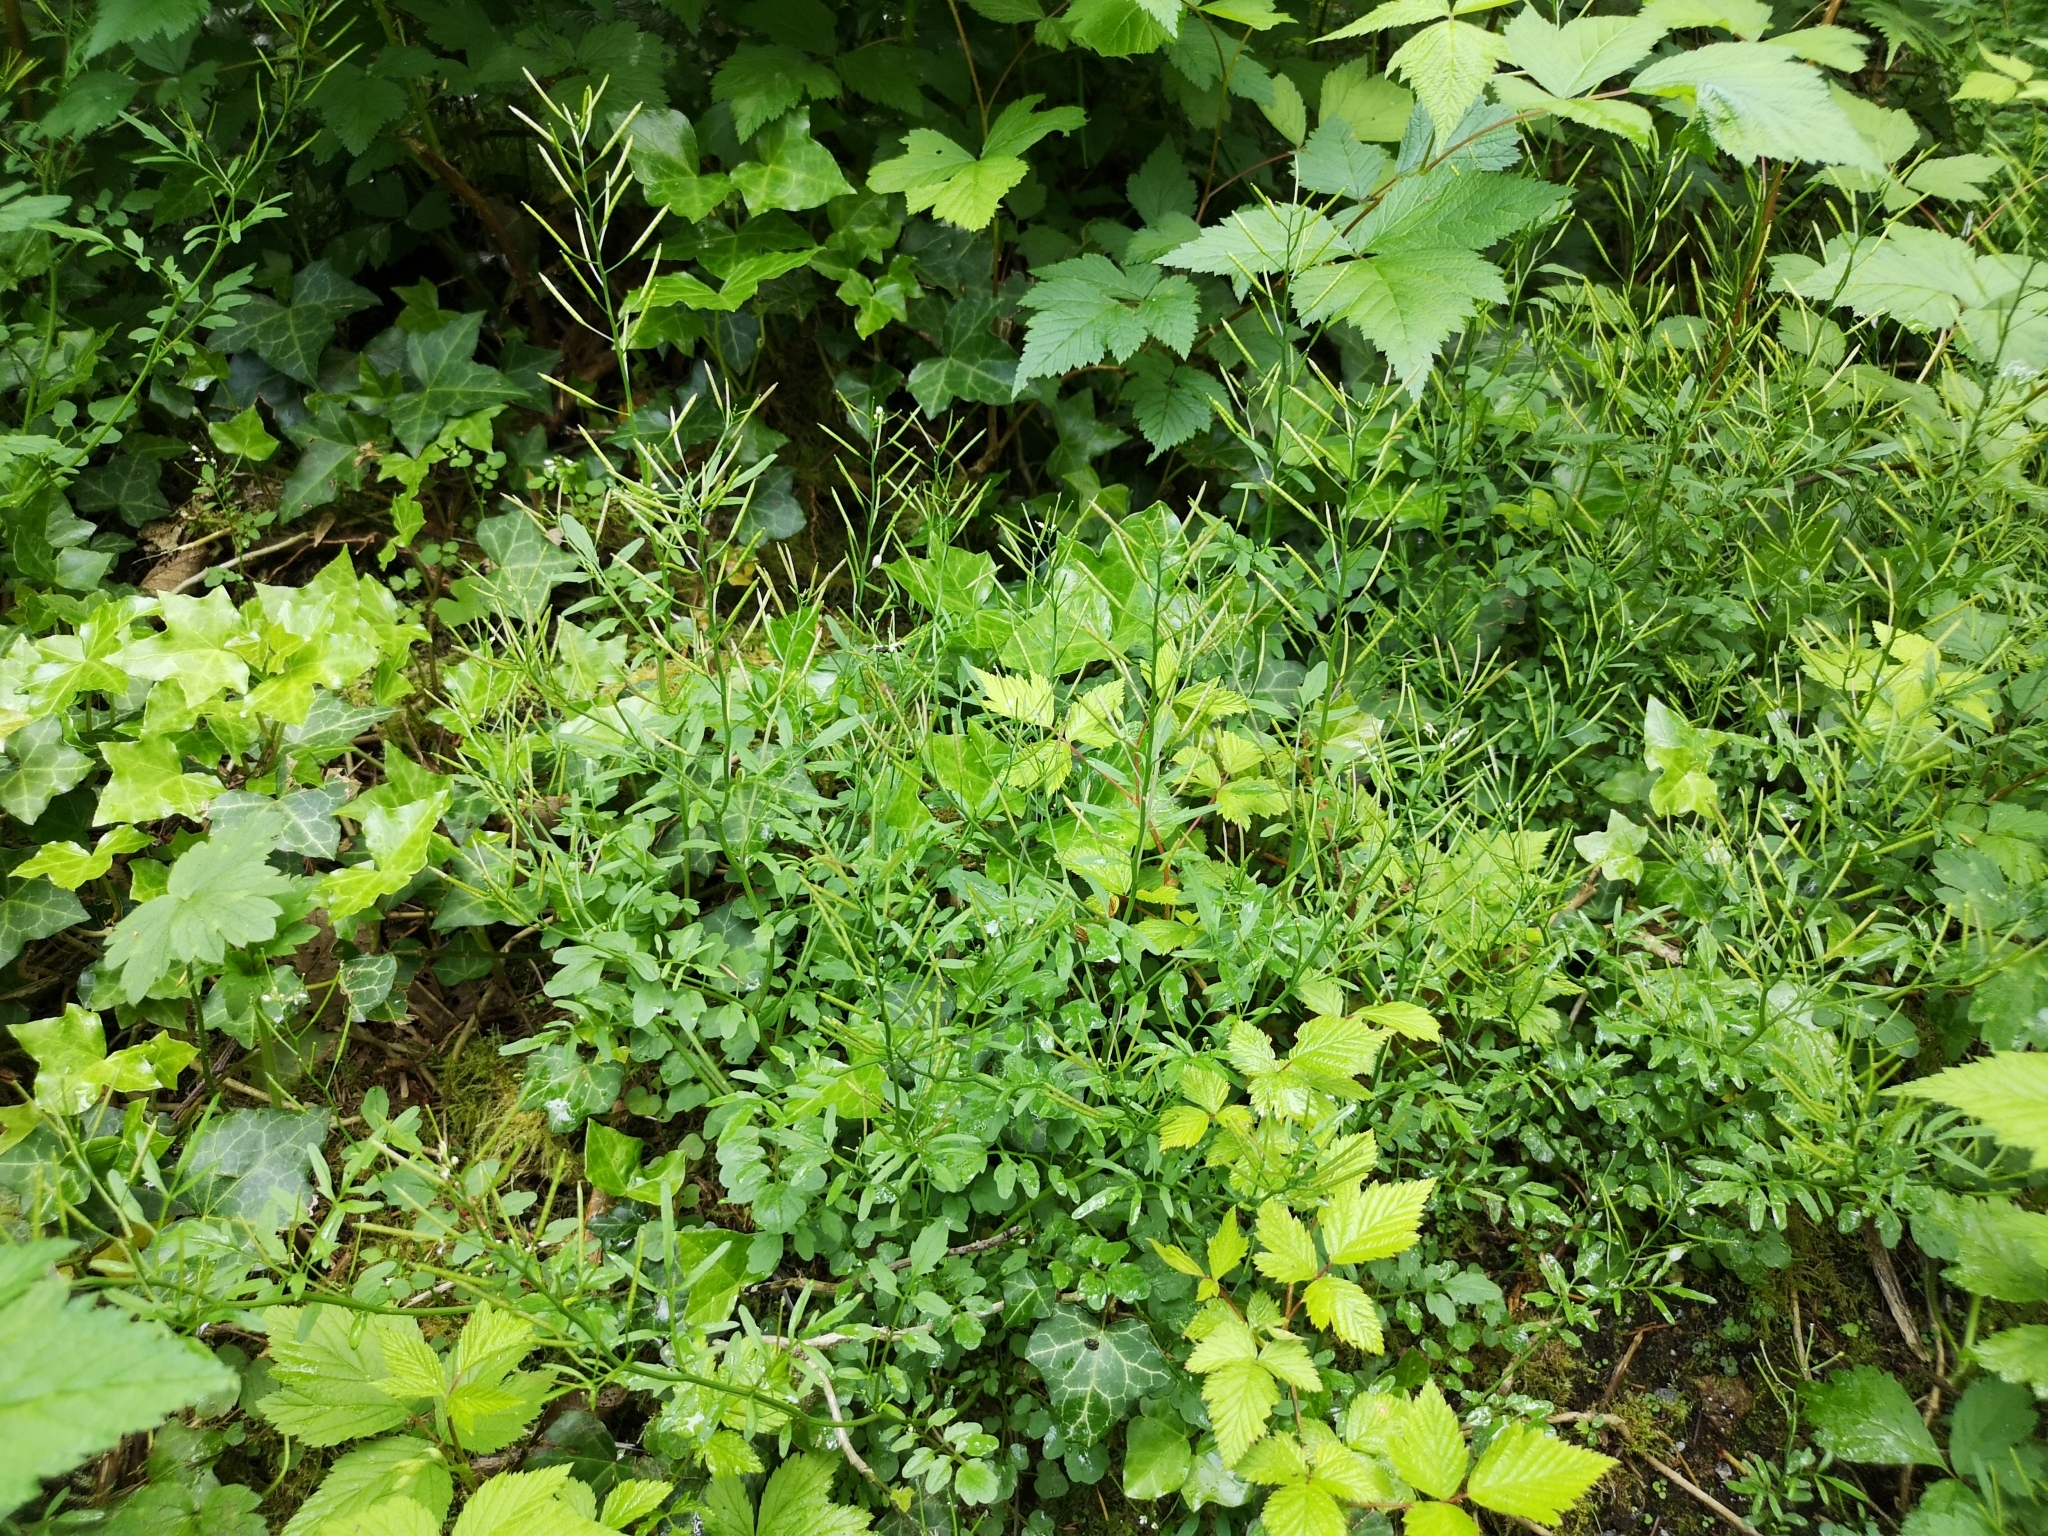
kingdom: Plantae
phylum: Tracheophyta
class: Magnoliopsida
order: Brassicales
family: Brassicaceae
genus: Cardamine
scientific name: Cardamine flexuosa
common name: Woodland bittercress
